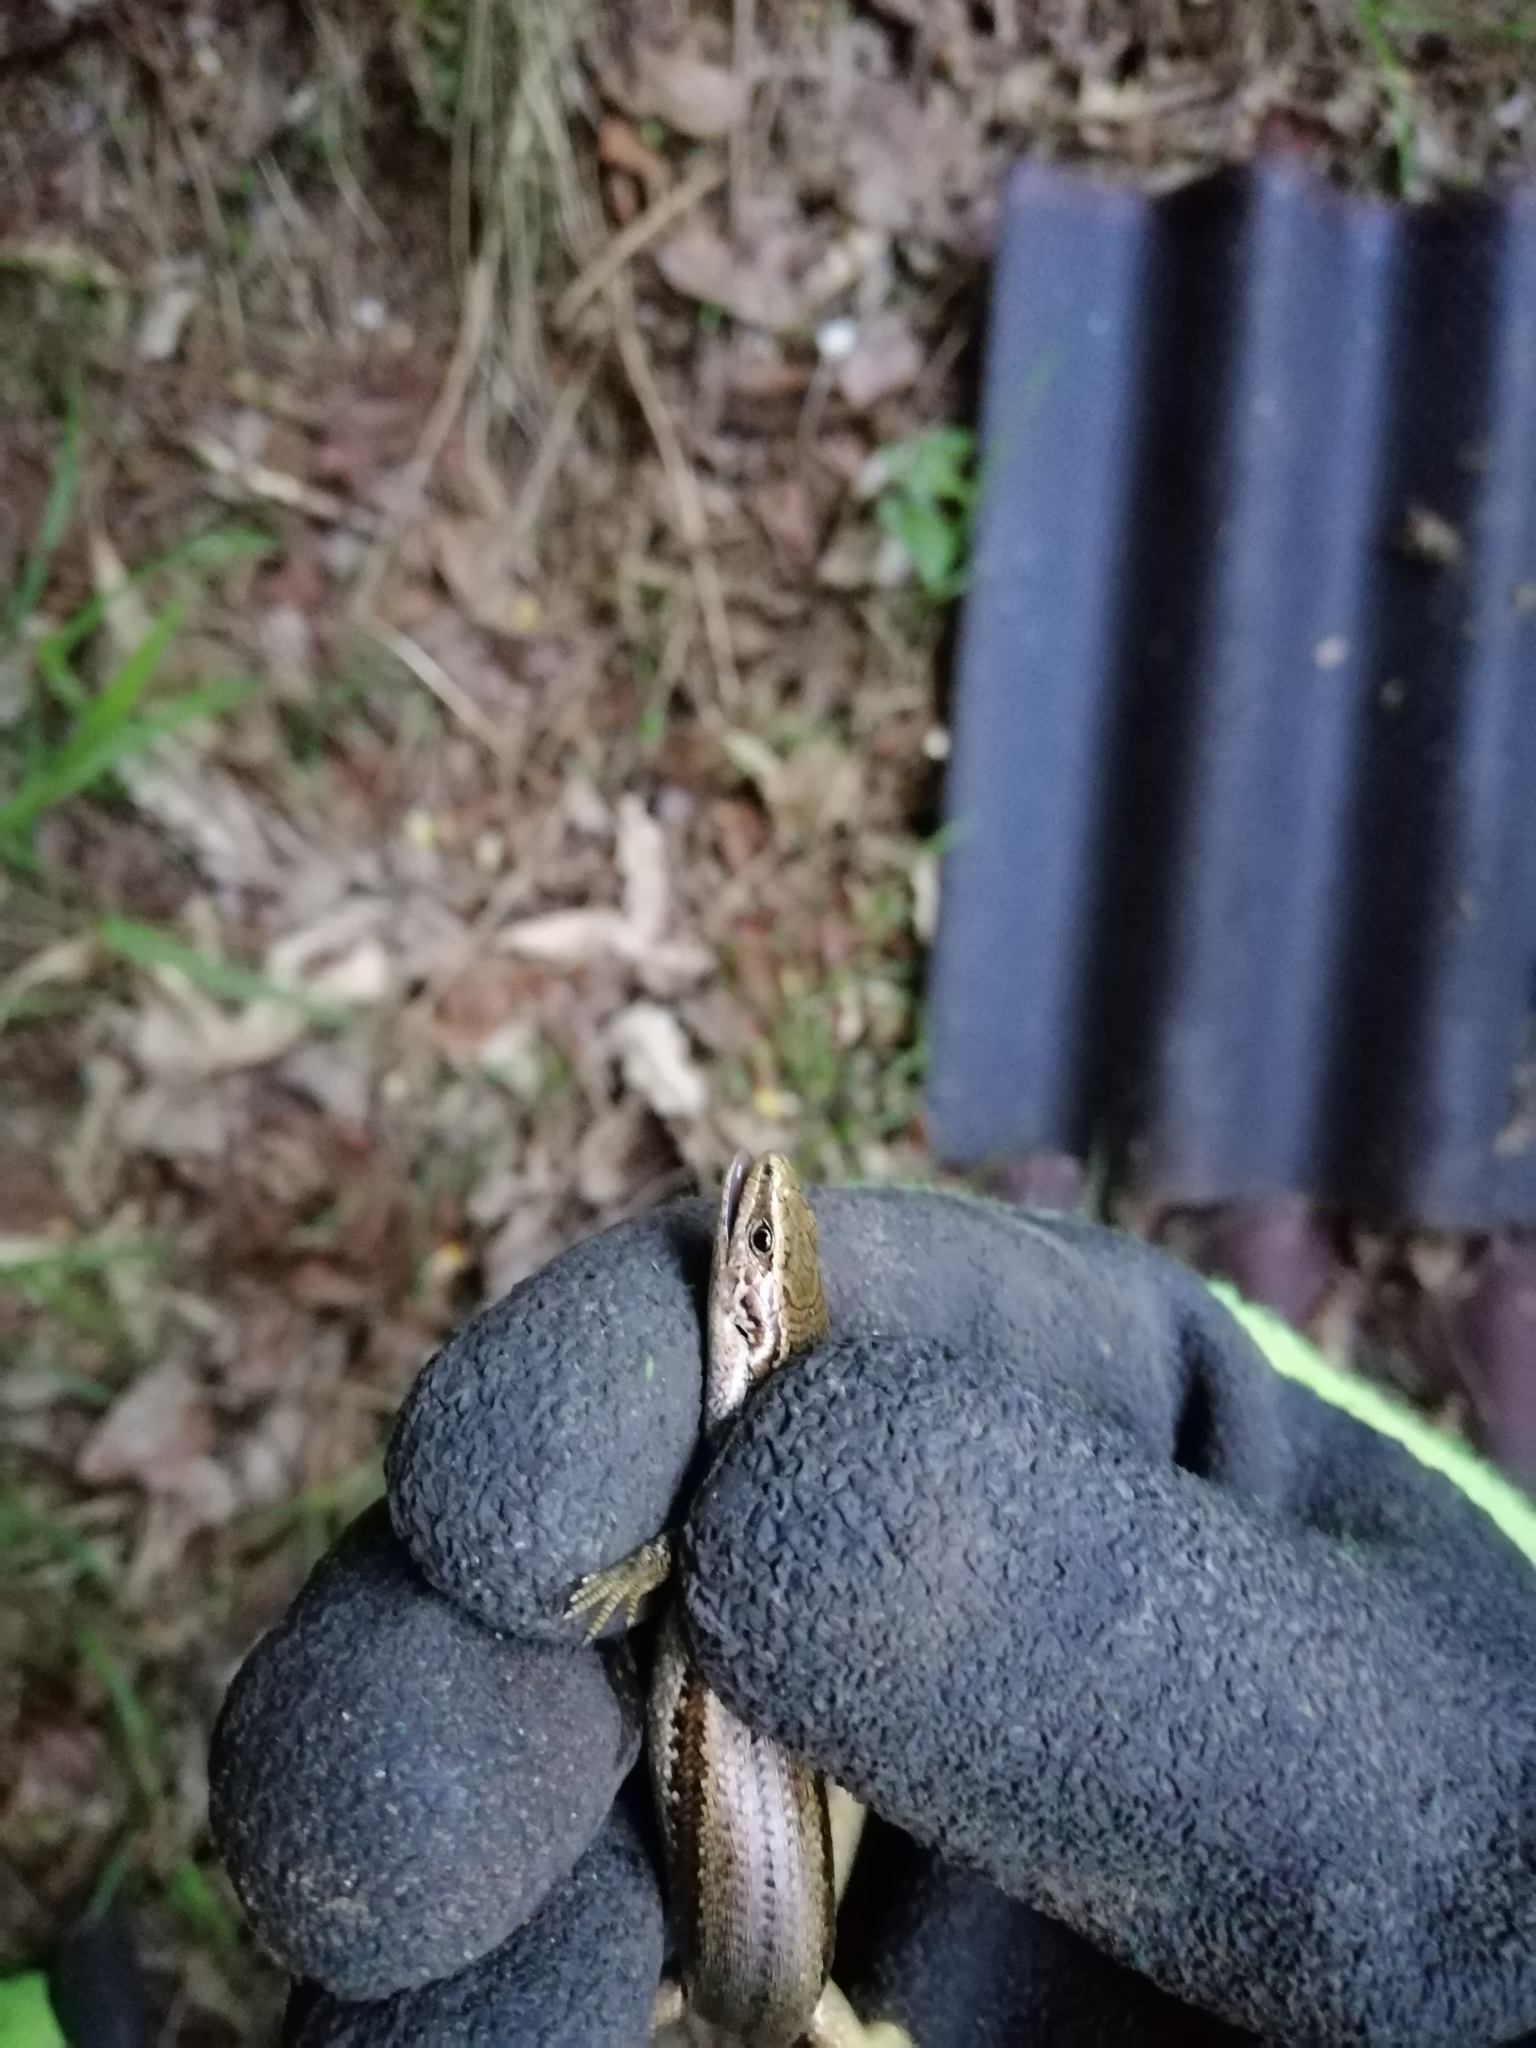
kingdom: Animalia
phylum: Chordata
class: Squamata
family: Scincidae
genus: Oligosoma
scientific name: Oligosoma polychroma
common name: Common new zealand skink
